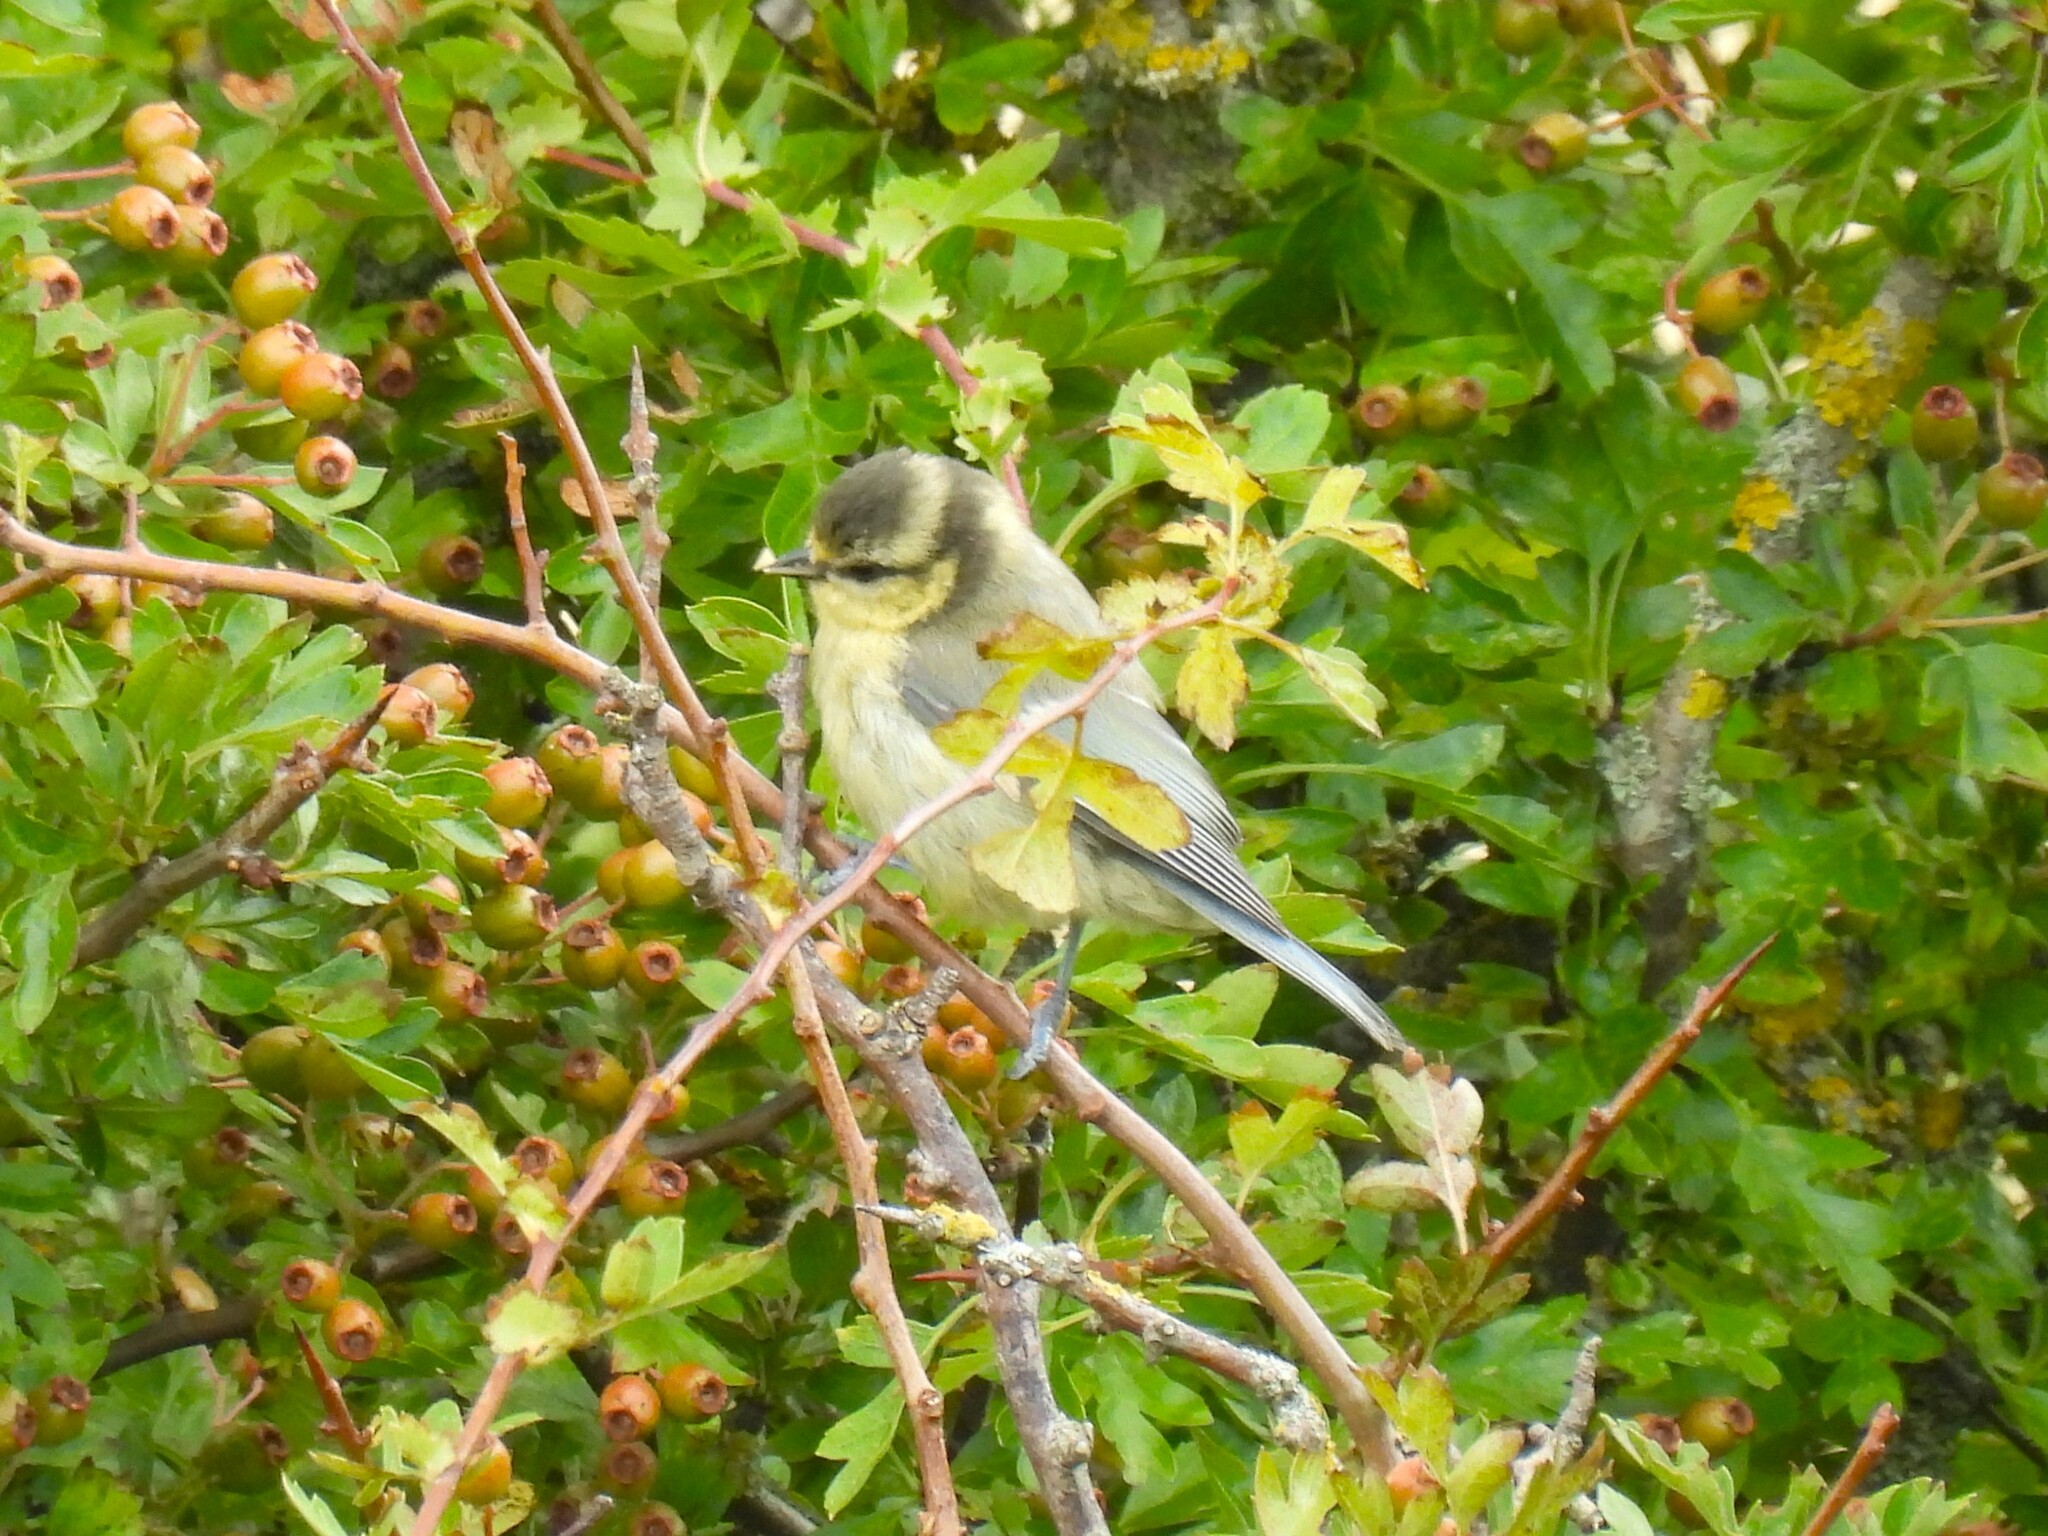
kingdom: Animalia
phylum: Chordata
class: Aves
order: Passeriformes
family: Paridae
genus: Cyanistes
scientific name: Cyanistes caeruleus
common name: Eurasian blue tit
